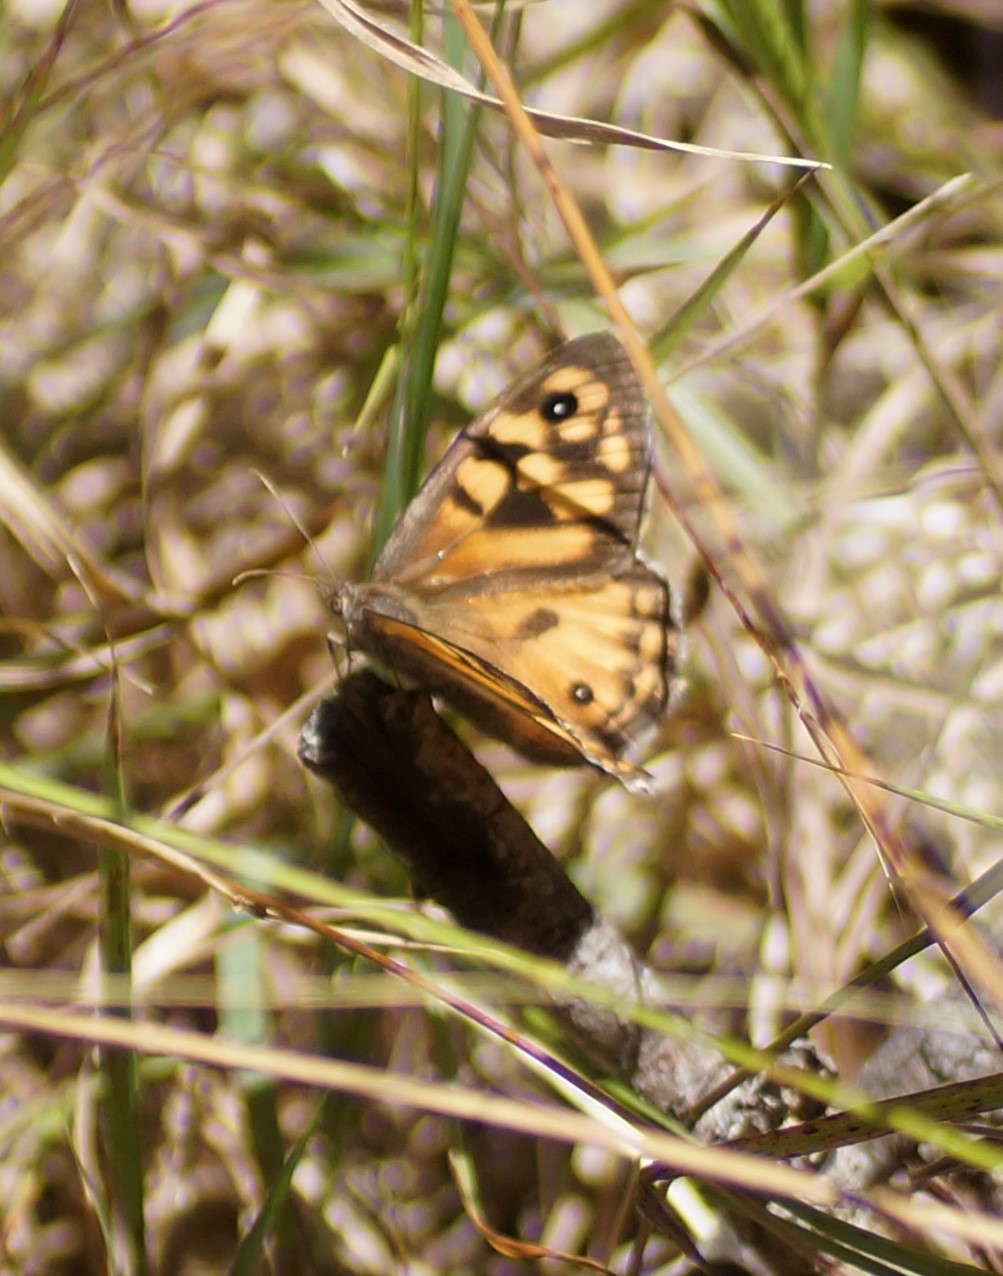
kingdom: Animalia
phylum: Arthropoda
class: Insecta
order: Lepidoptera
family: Nymphalidae
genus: Geitoneura
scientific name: Geitoneura klugii
